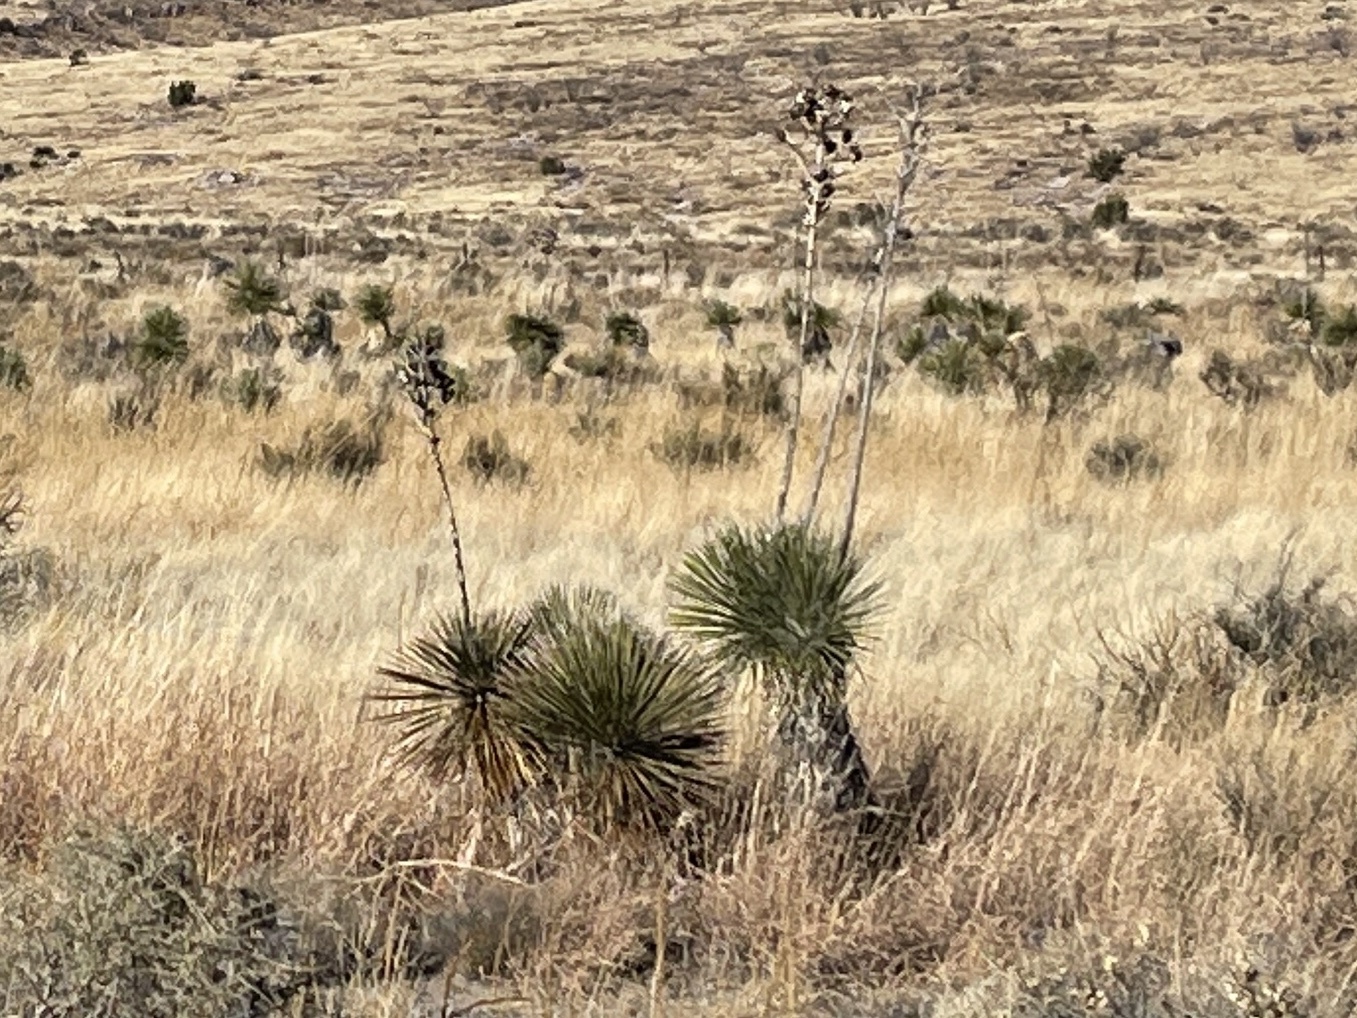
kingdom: Plantae
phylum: Tracheophyta
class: Liliopsida
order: Asparagales
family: Asparagaceae
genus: Yucca
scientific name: Yucca elata
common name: Palmella
